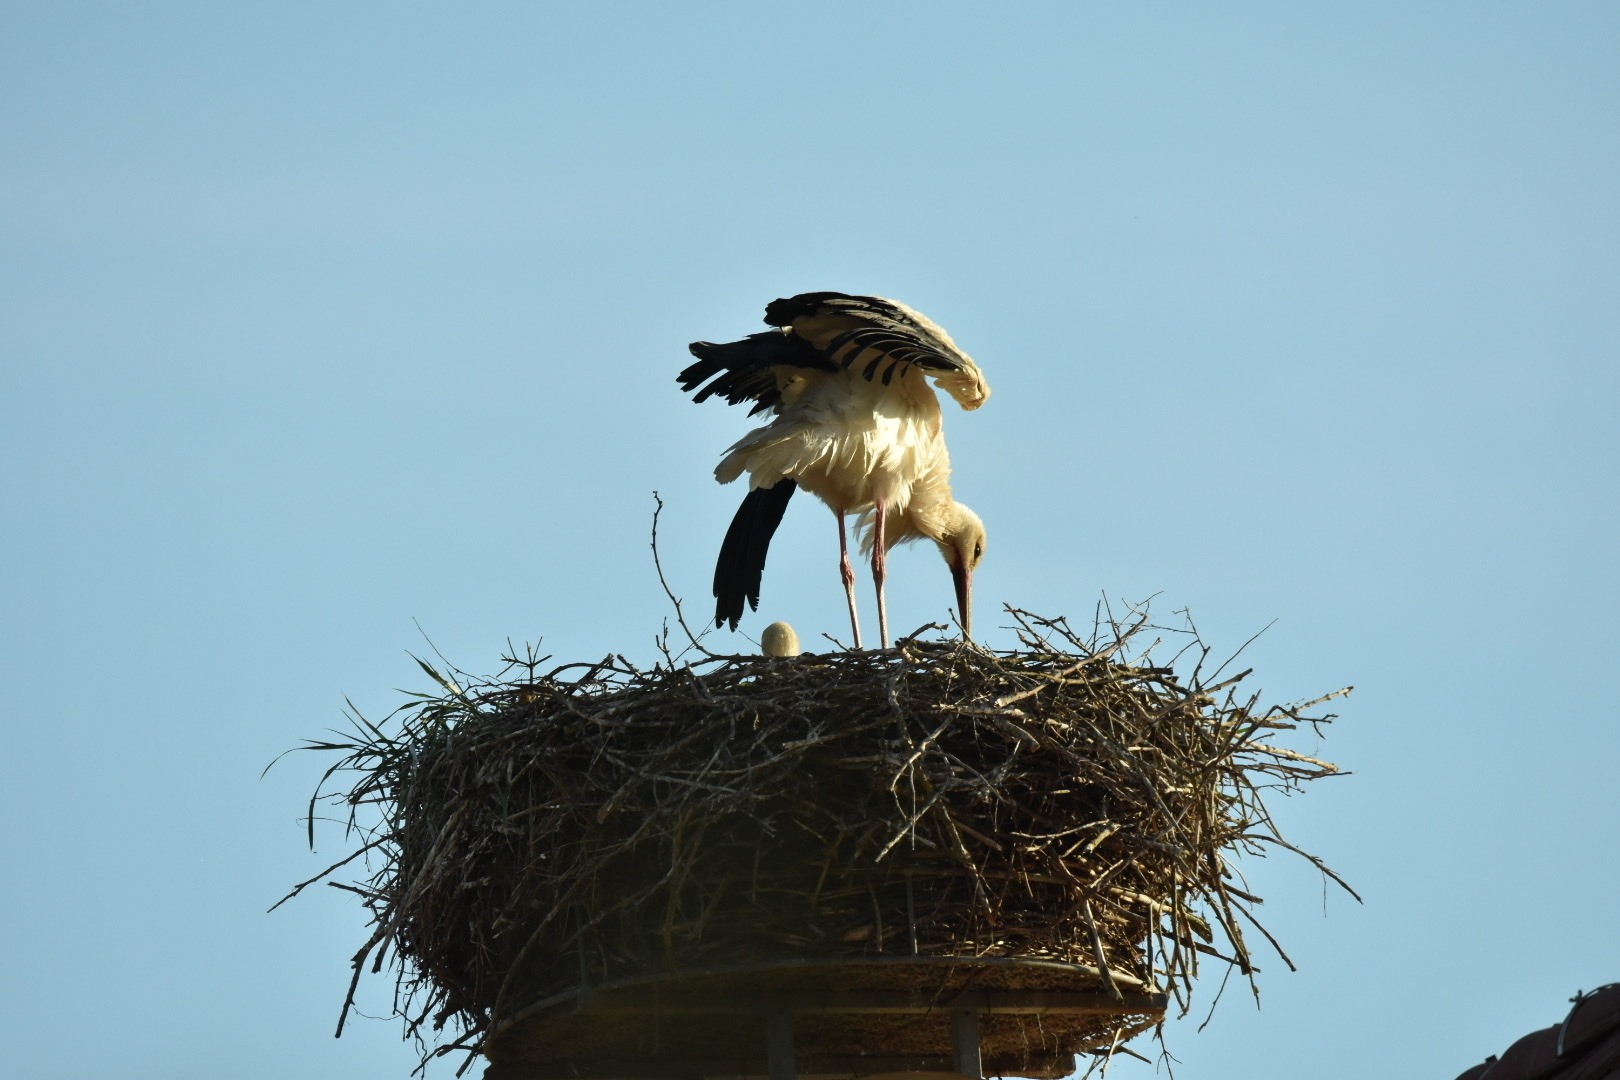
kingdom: Animalia
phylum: Chordata
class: Aves
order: Ciconiiformes
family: Ciconiidae
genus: Ciconia
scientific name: Ciconia ciconia
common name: White stork
